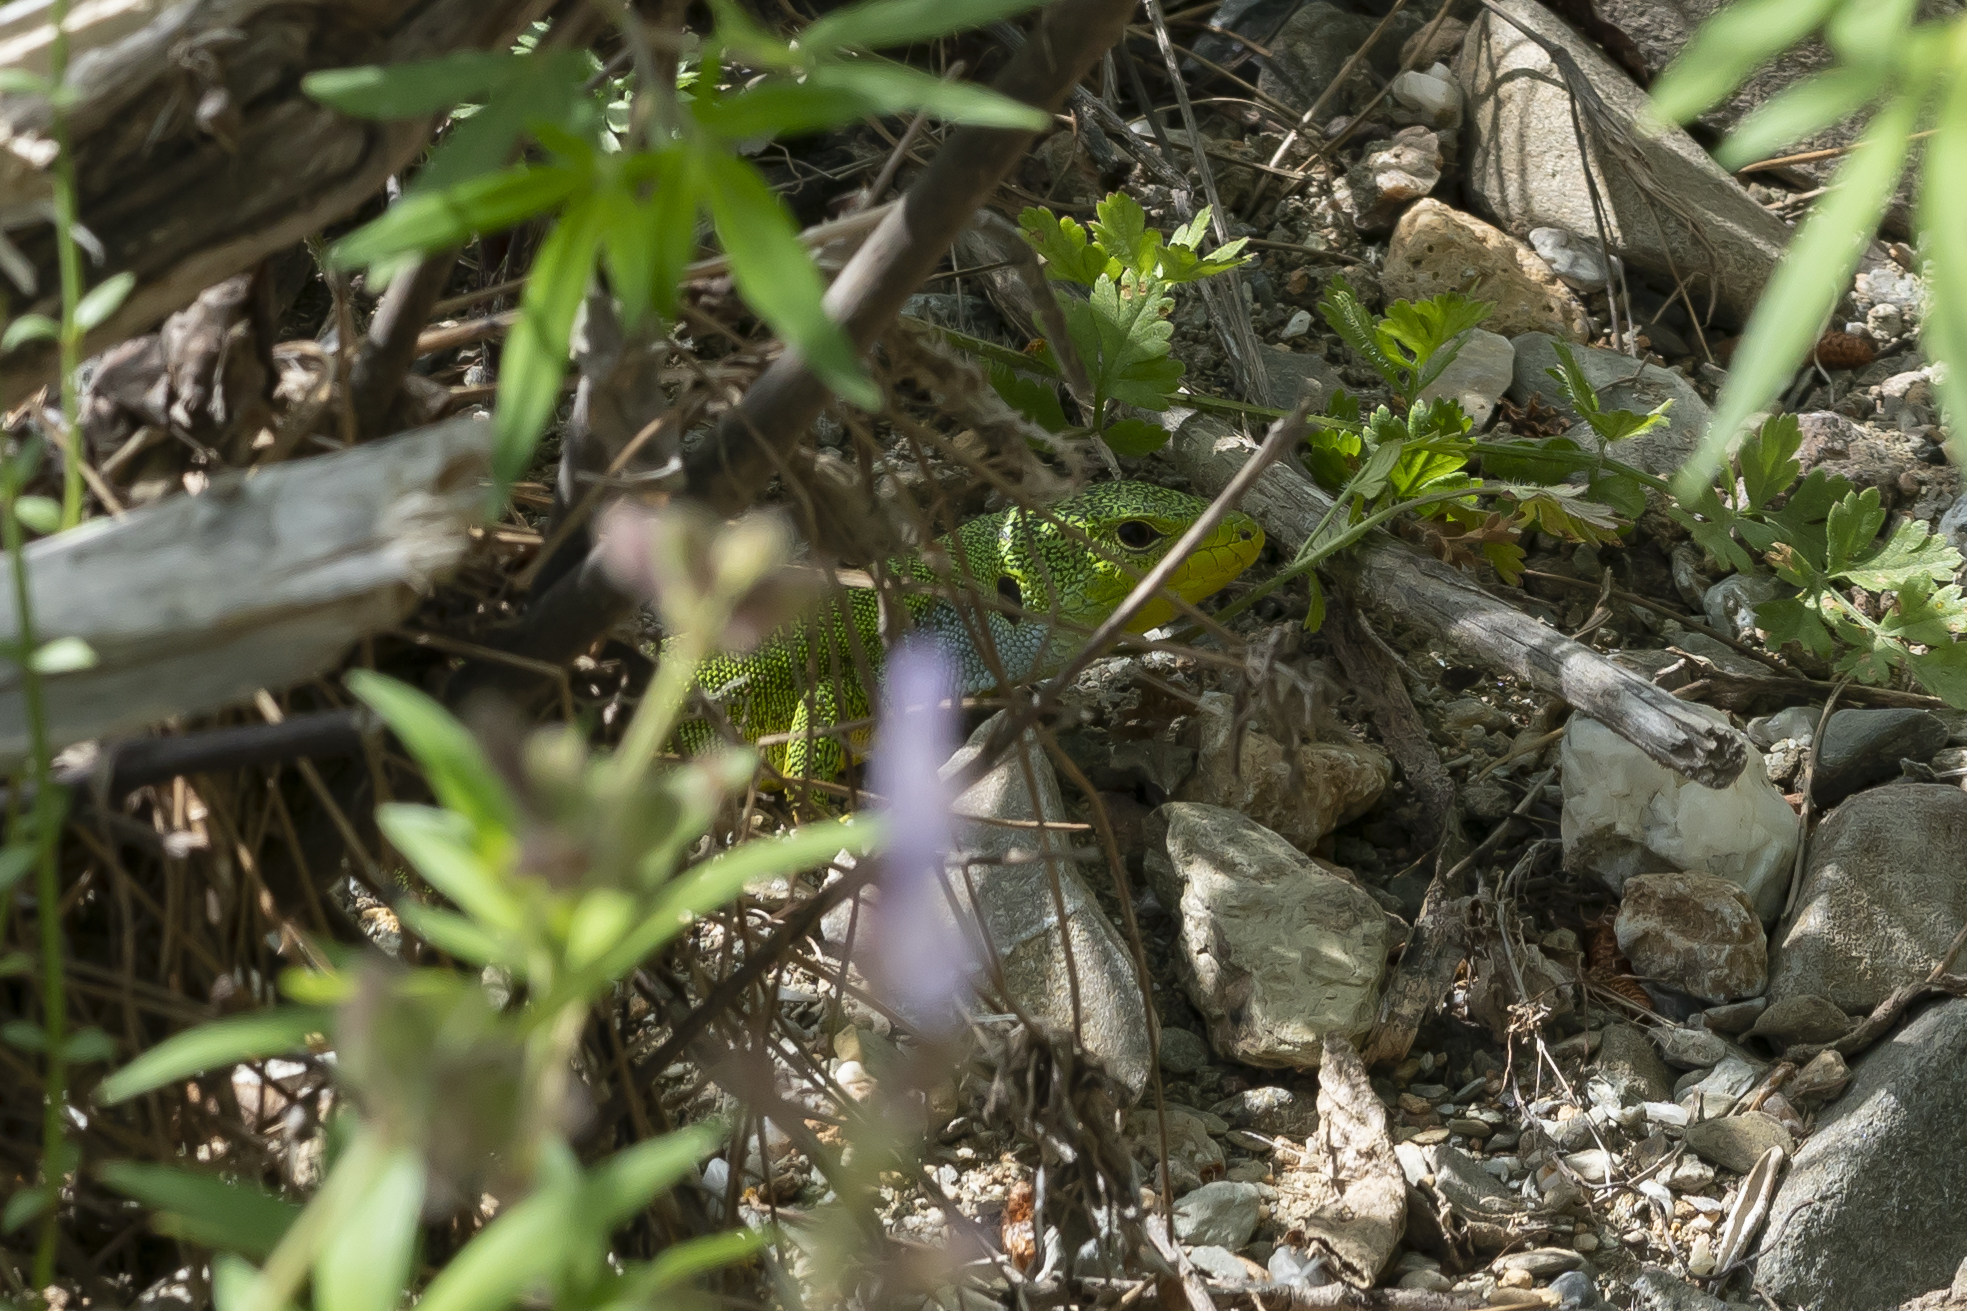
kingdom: Animalia
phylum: Chordata
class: Squamata
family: Lacertidae
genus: Lacerta
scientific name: Lacerta diplochondrodes
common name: Rhodos green lizard
